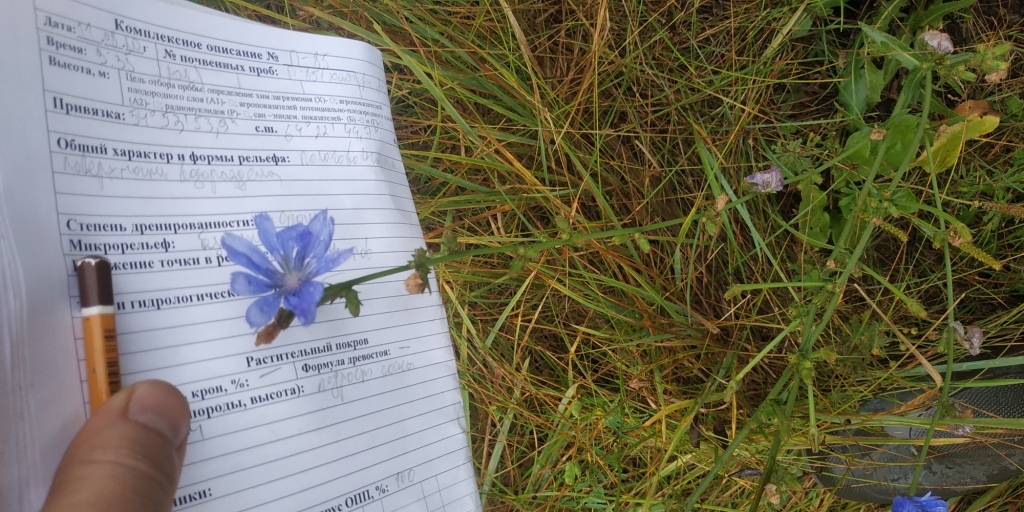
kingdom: Plantae
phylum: Tracheophyta
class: Magnoliopsida
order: Asterales
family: Asteraceae
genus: Cichorium
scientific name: Cichorium intybus
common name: Chicory
